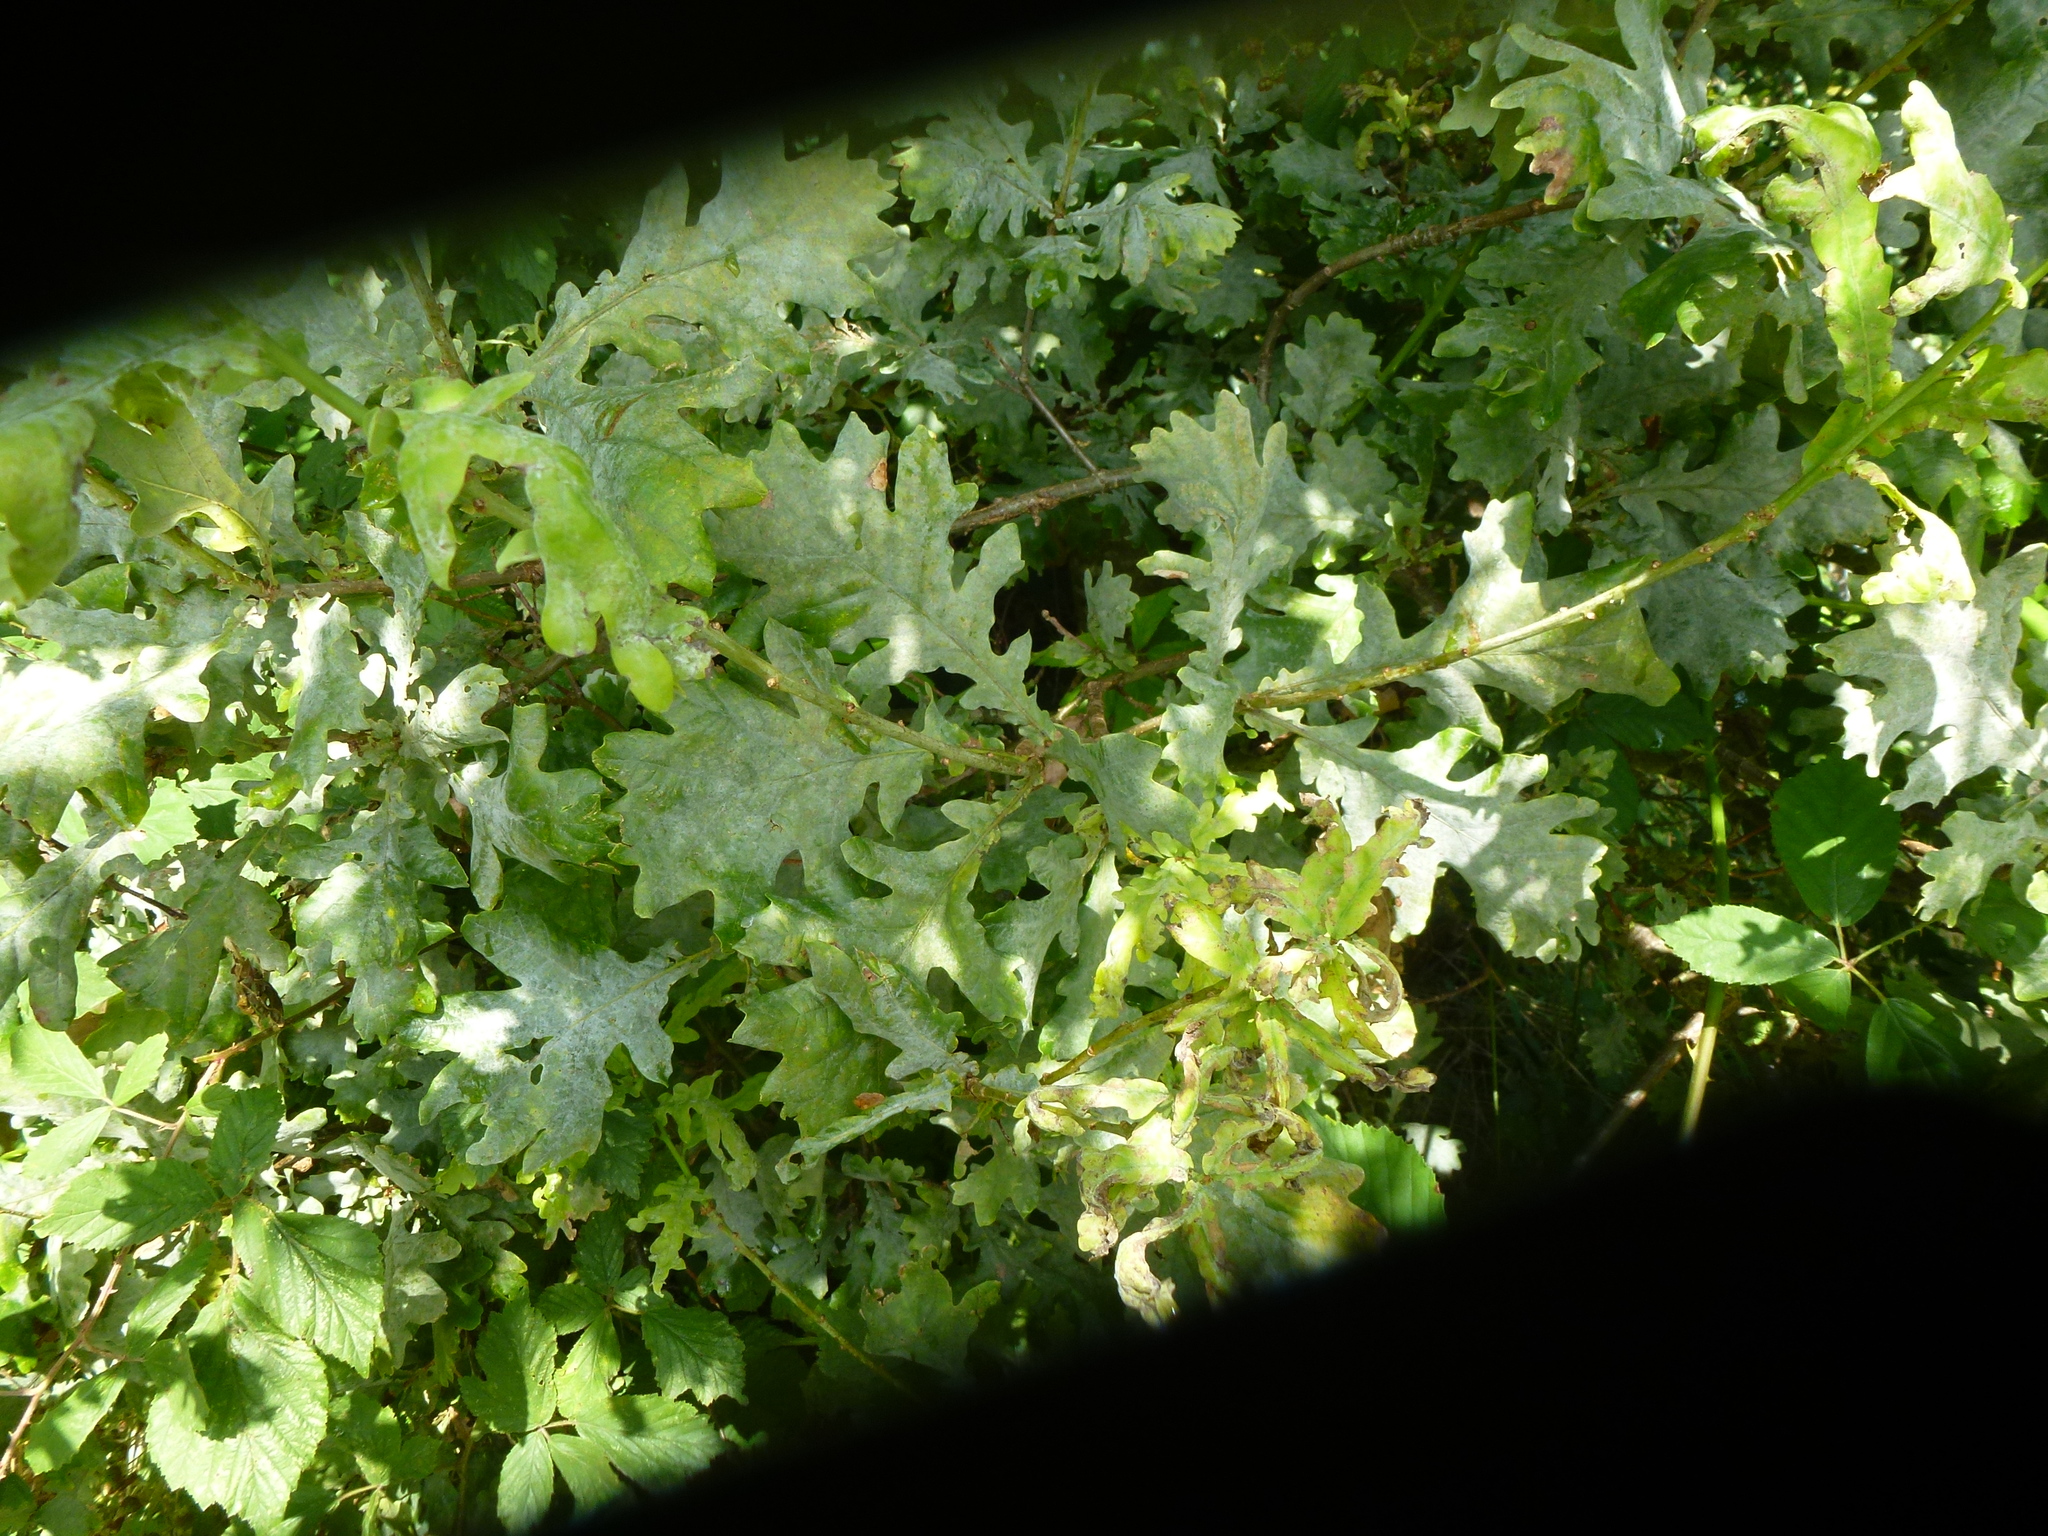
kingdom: Fungi
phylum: Ascomycota
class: Leotiomycetes
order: Helotiales
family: Erysiphaceae
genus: Erysiphe
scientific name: Erysiphe alphitoides
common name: Oak mildew
